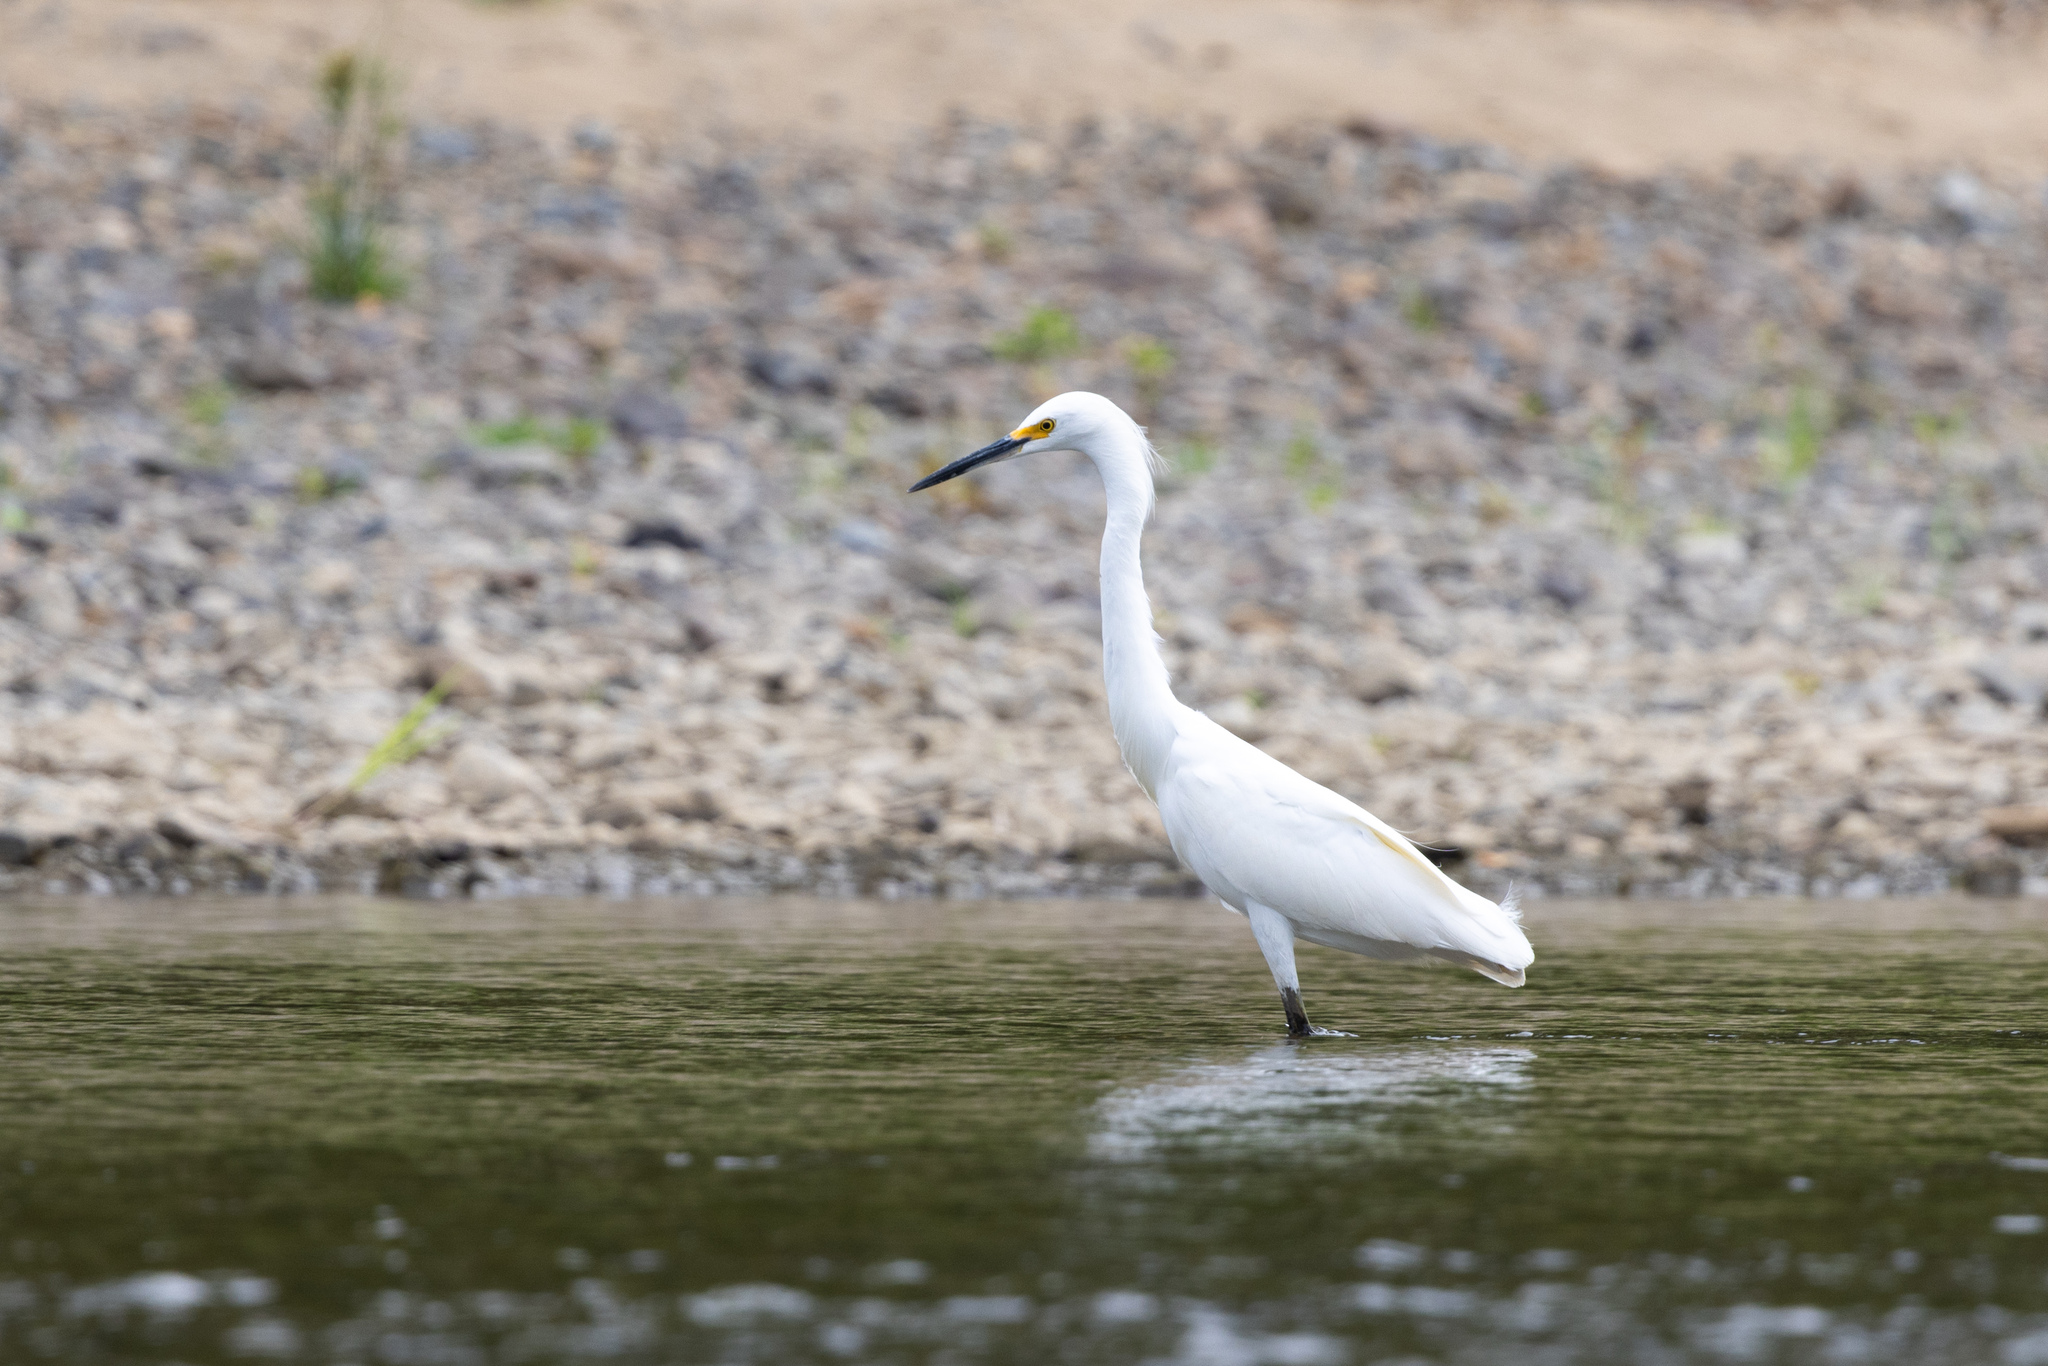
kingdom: Animalia
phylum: Chordata
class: Aves
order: Pelecaniformes
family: Ardeidae
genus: Egretta
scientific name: Egretta thula
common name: Snowy egret
